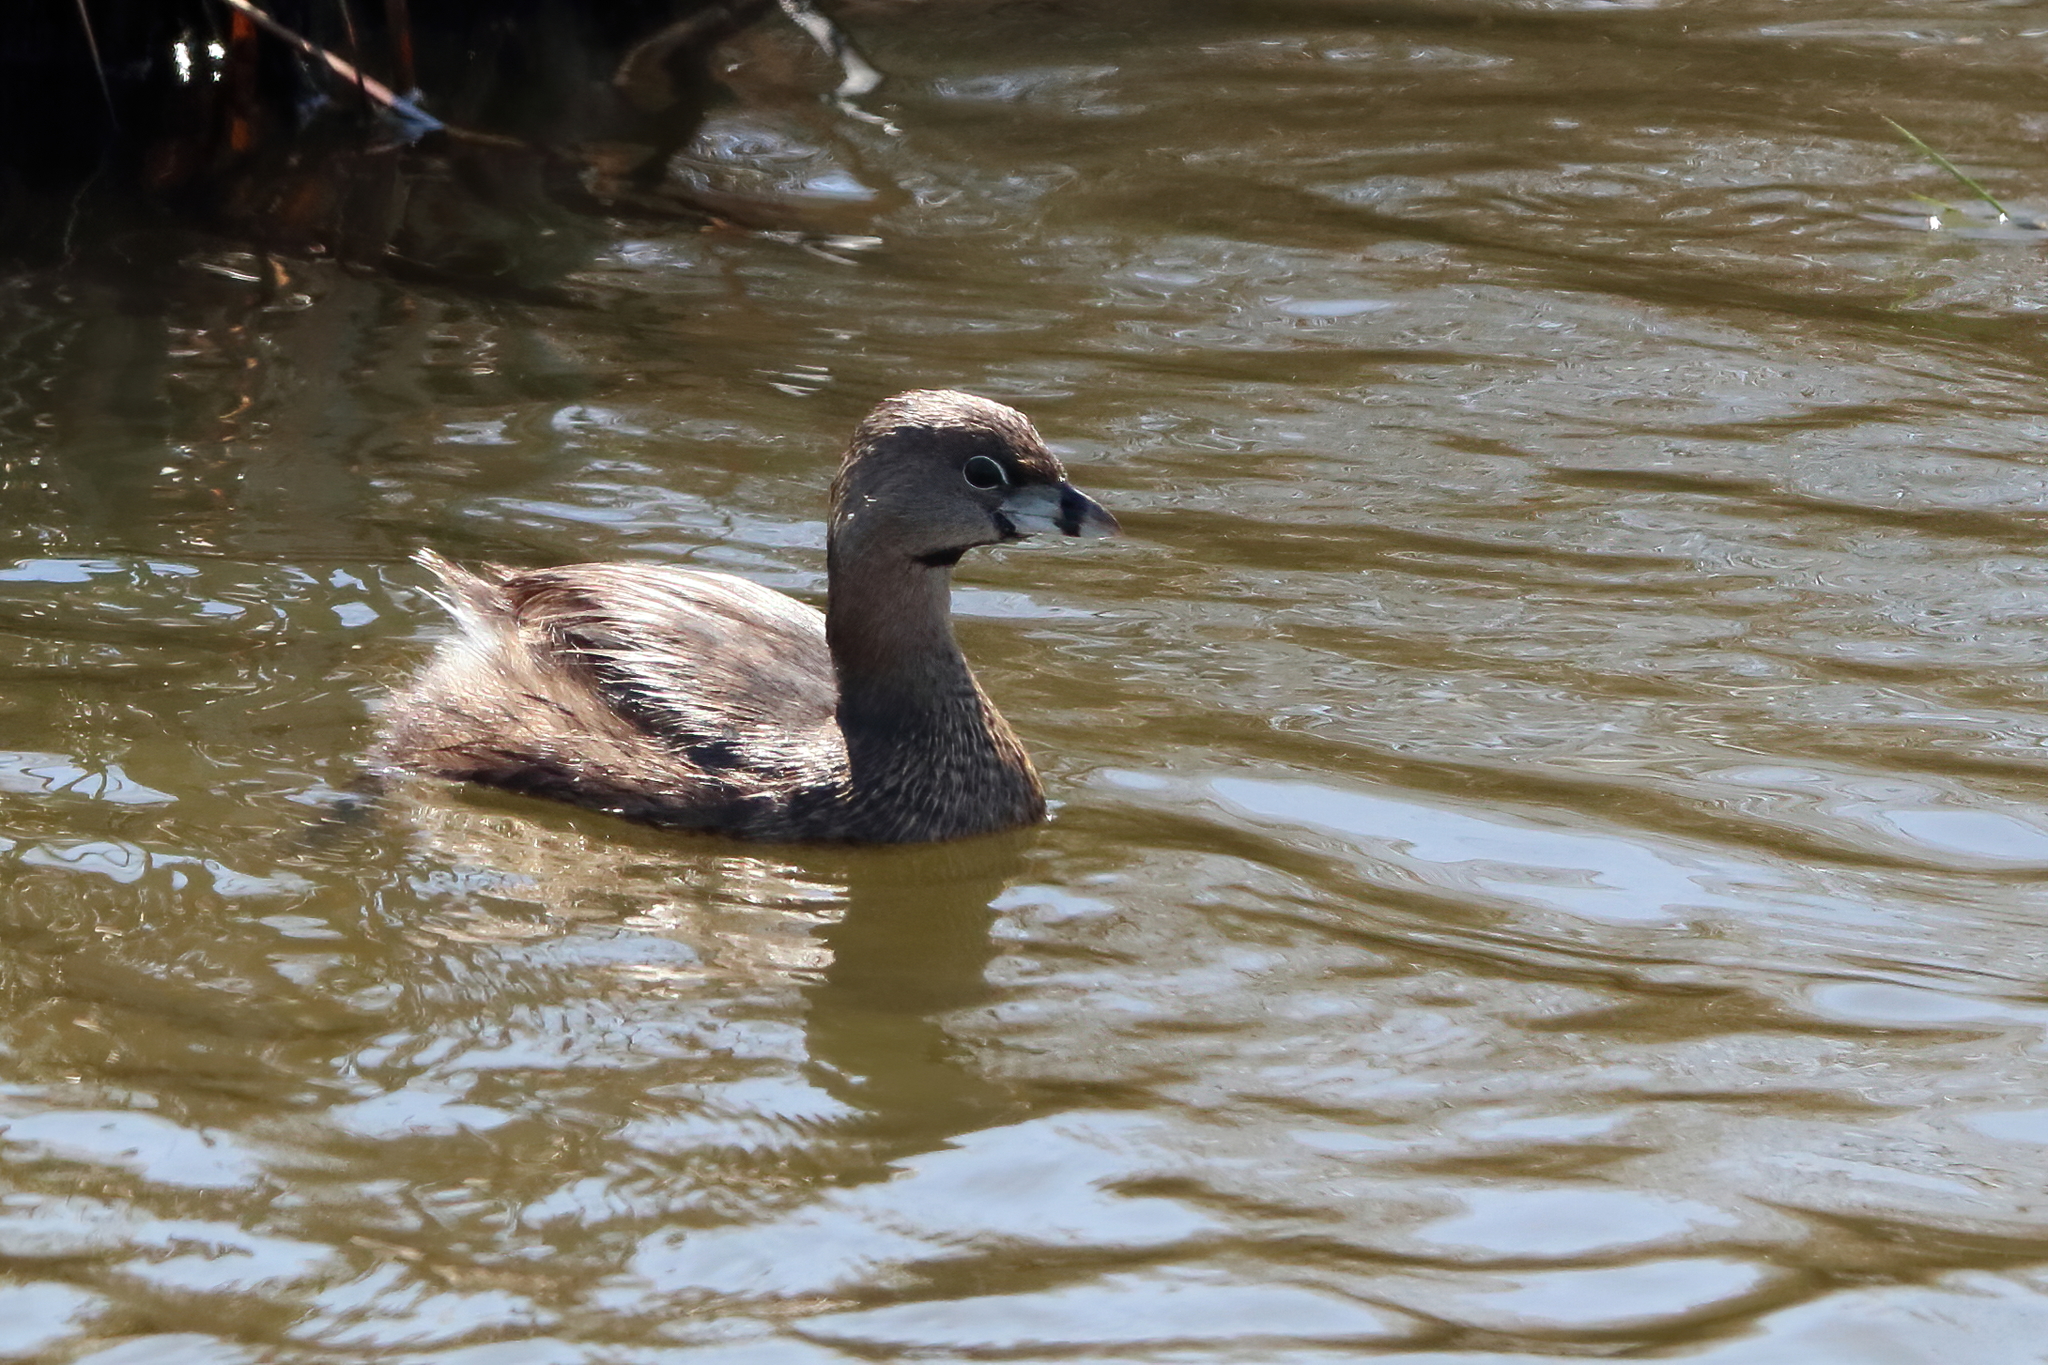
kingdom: Animalia
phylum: Chordata
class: Aves
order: Podicipediformes
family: Podicipedidae
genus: Podilymbus
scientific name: Podilymbus podiceps
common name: Pied-billed grebe
